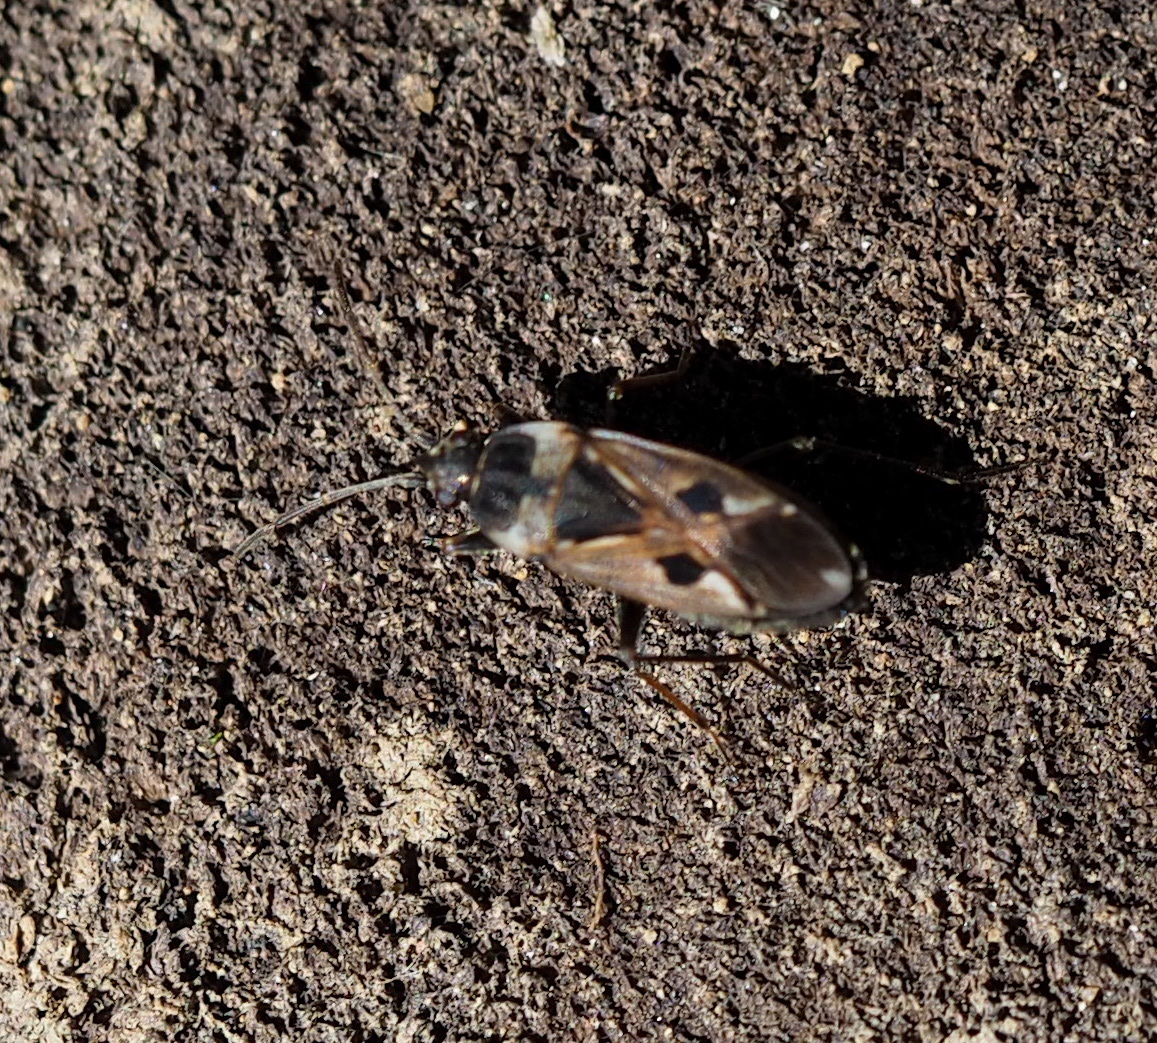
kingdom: Animalia
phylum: Arthropoda
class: Insecta
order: Hemiptera
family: Rhyparochromidae
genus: Rhyparochromus
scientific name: Rhyparochromus vulgaris
